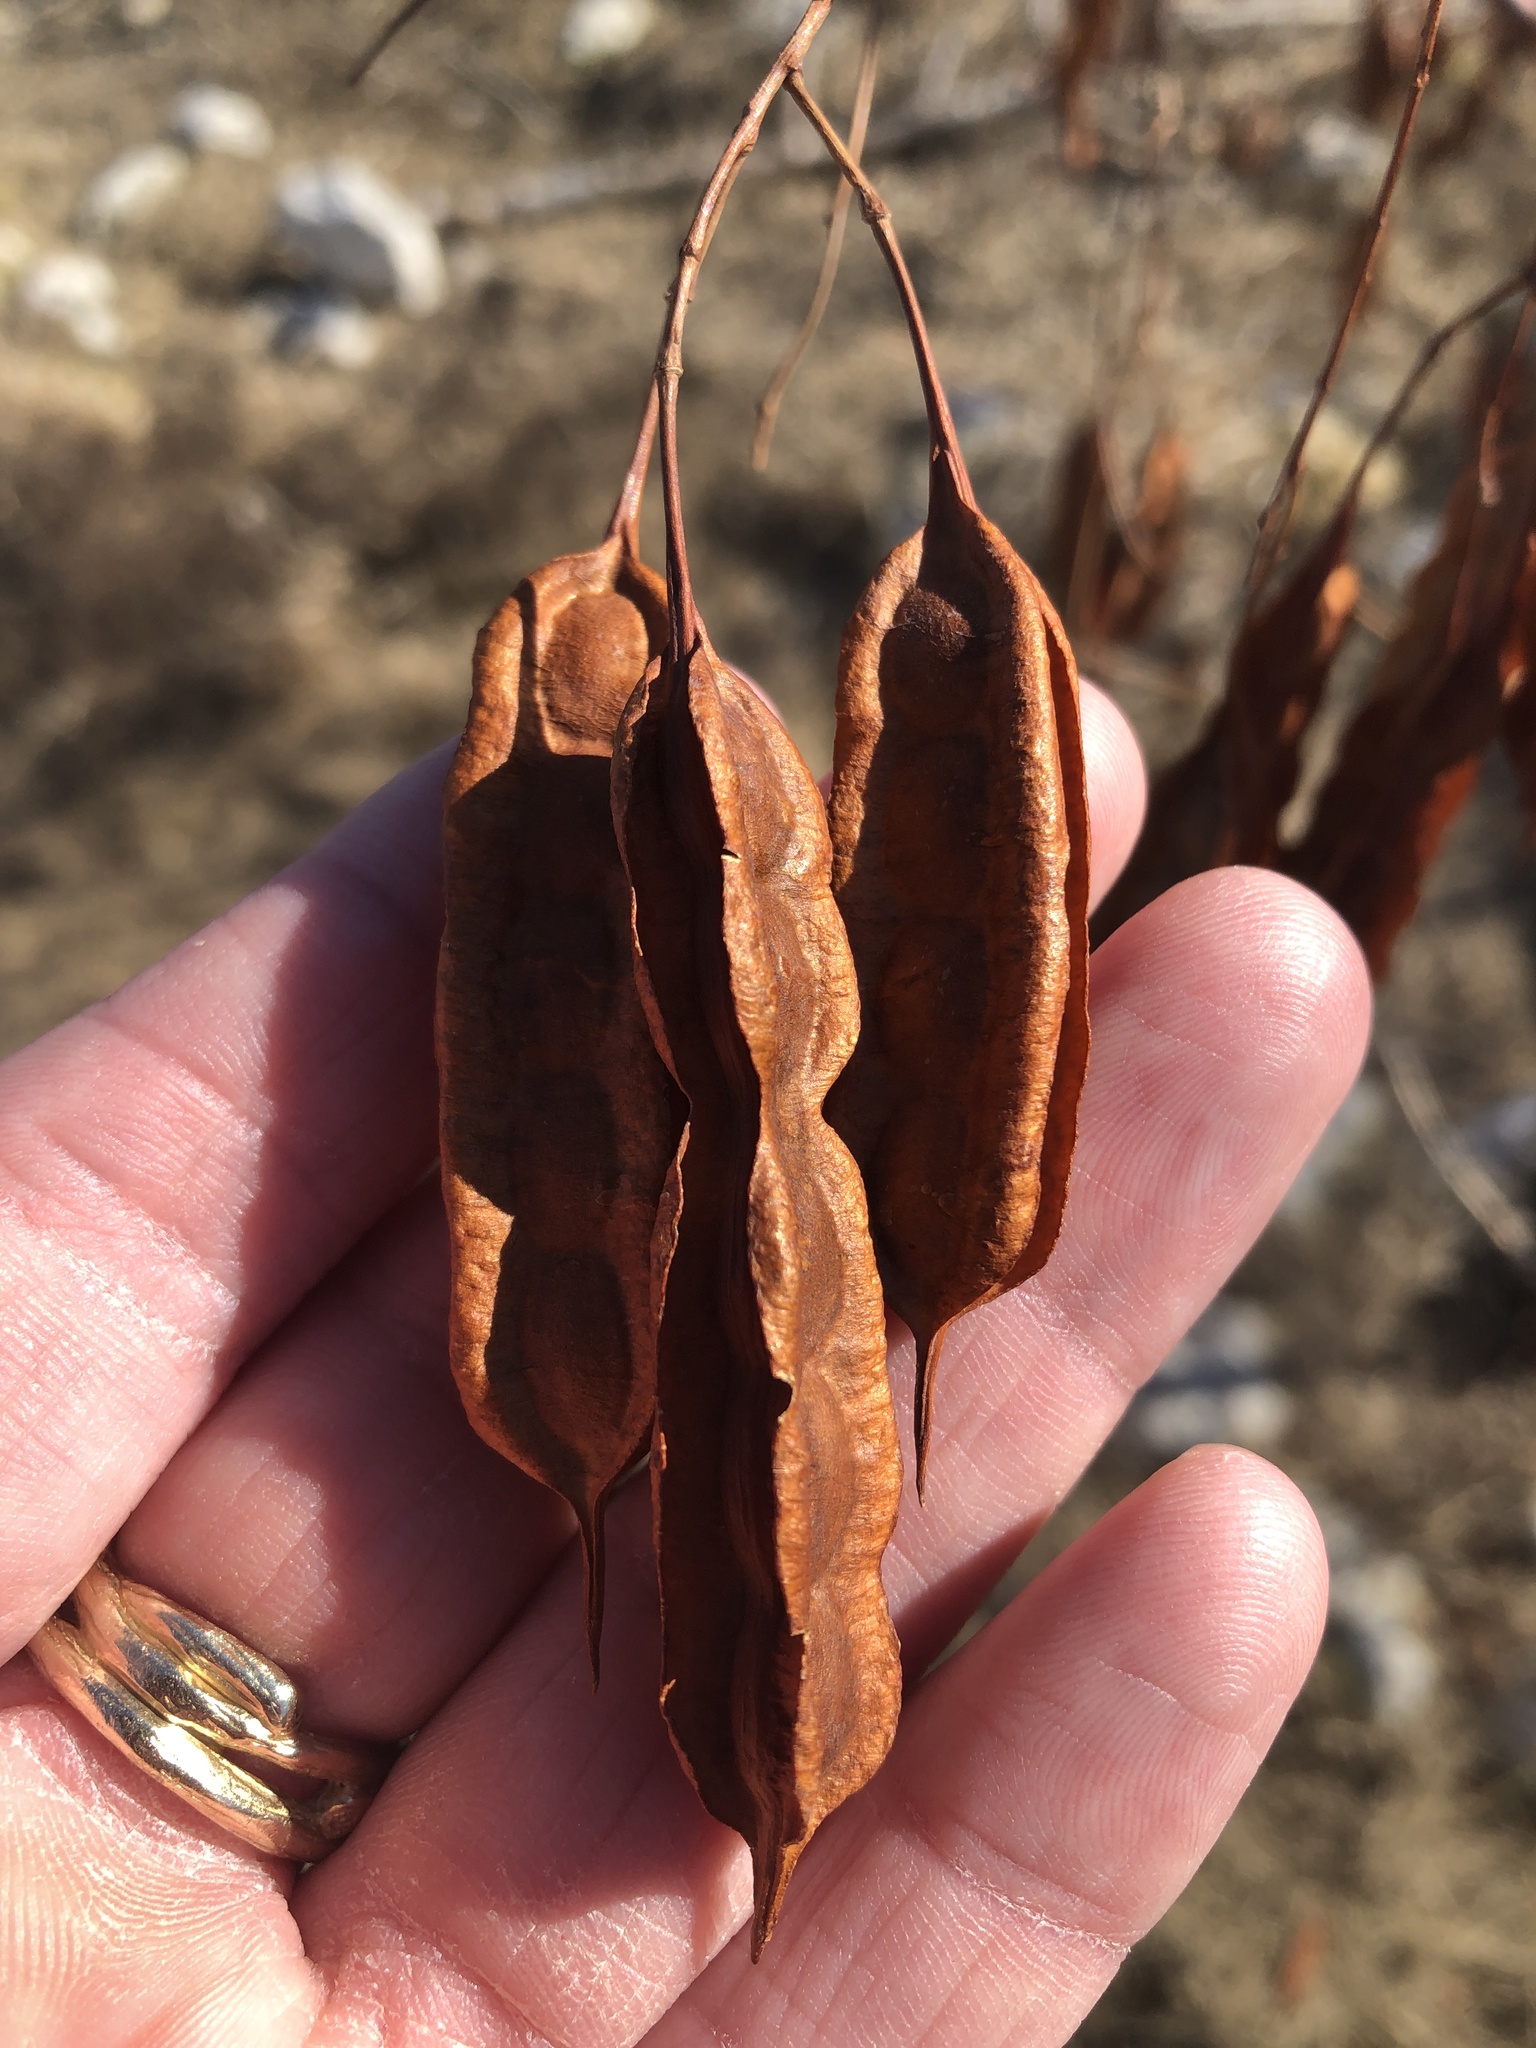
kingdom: Plantae
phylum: Tracheophyta
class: Magnoliopsida
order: Fabales
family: Fabaceae
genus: Sesbania
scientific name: Sesbania drummondii
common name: Poison-bean
